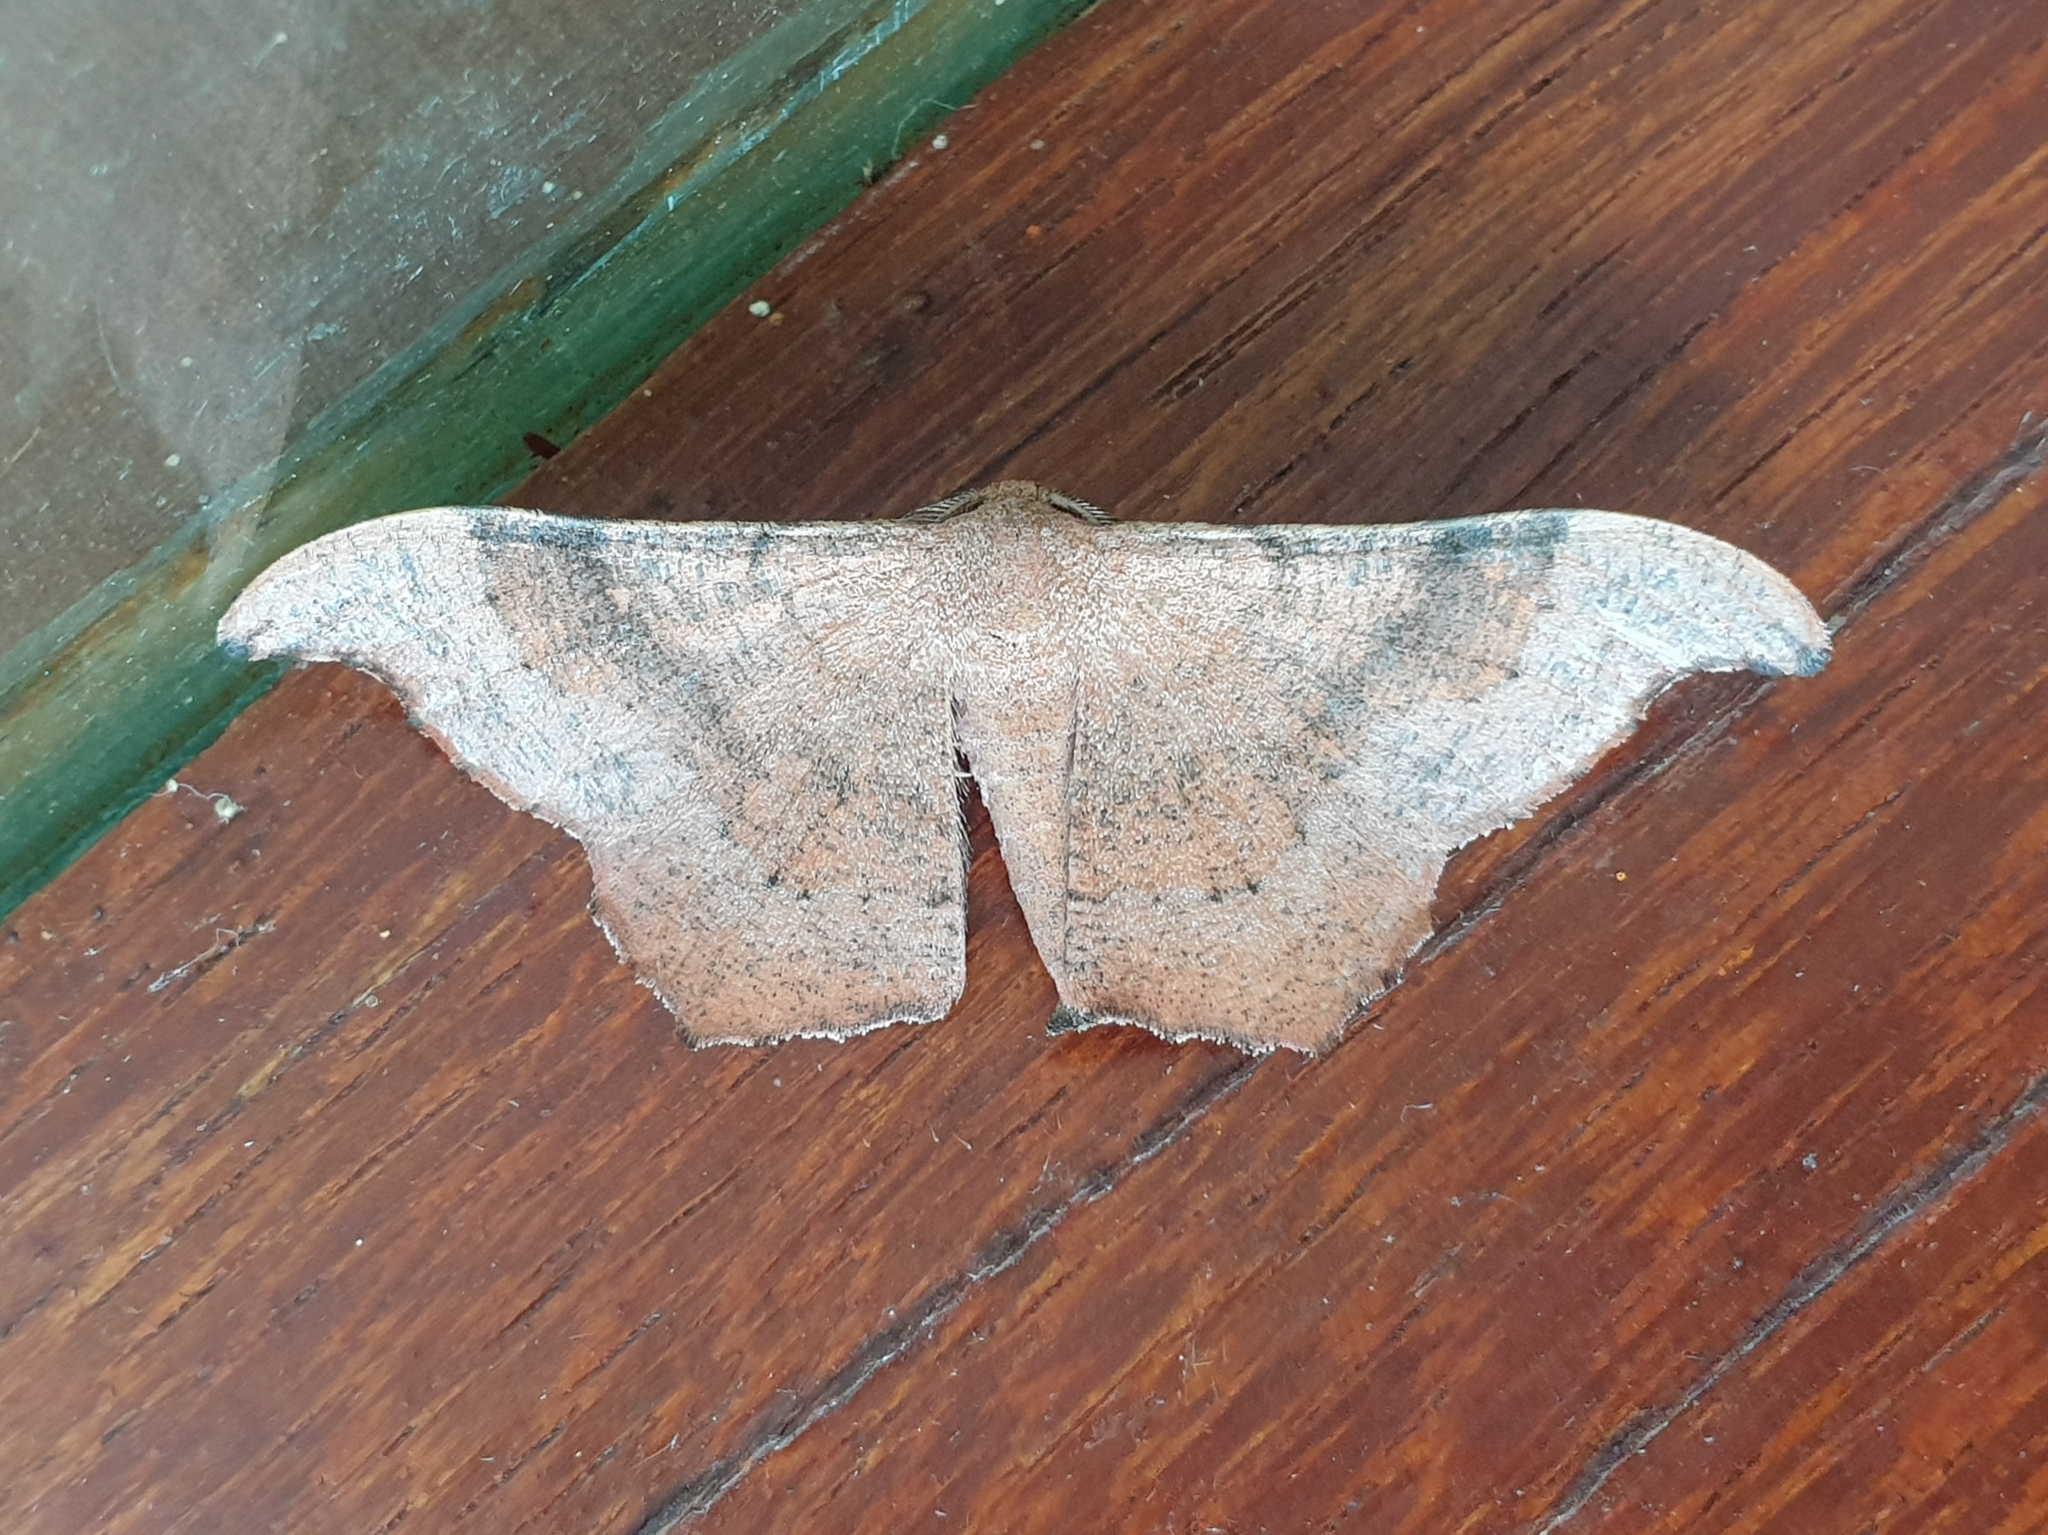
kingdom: Animalia
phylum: Arthropoda
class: Insecta
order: Lepidoptera
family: Geometridae
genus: Hyposidra
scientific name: Hyposidra talaca
